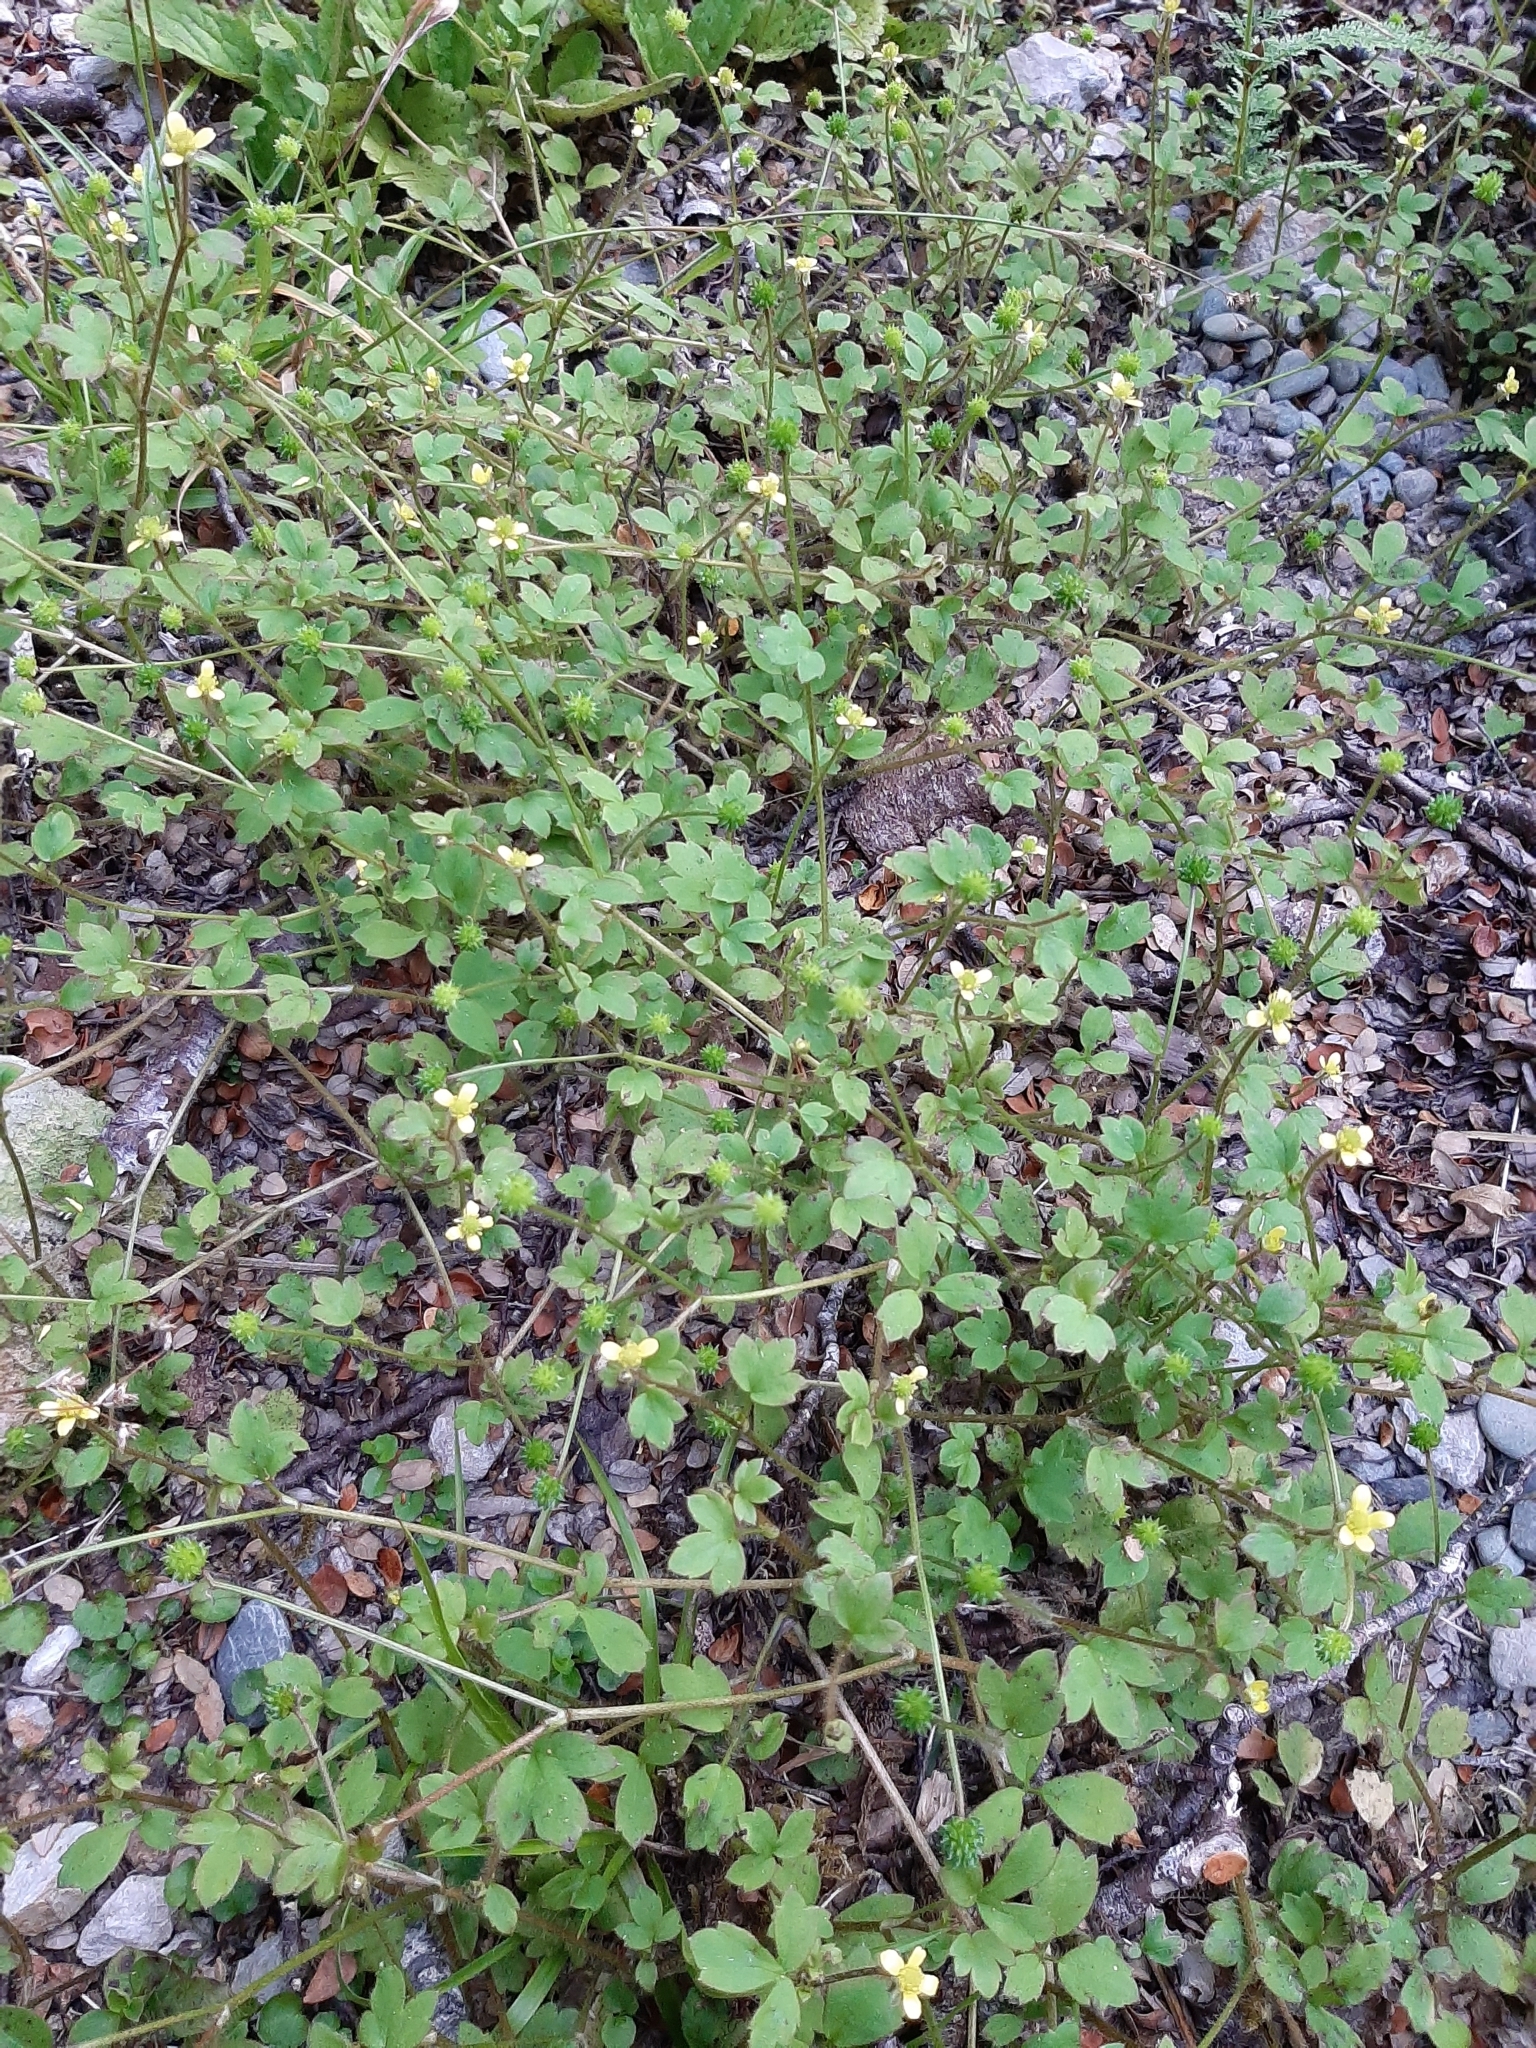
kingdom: Plantae
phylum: Tracheophyta
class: Magnoliopsida
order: Ranunculales
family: Ranunculaceae
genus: Ranunculus
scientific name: Ranunculus reflexus
